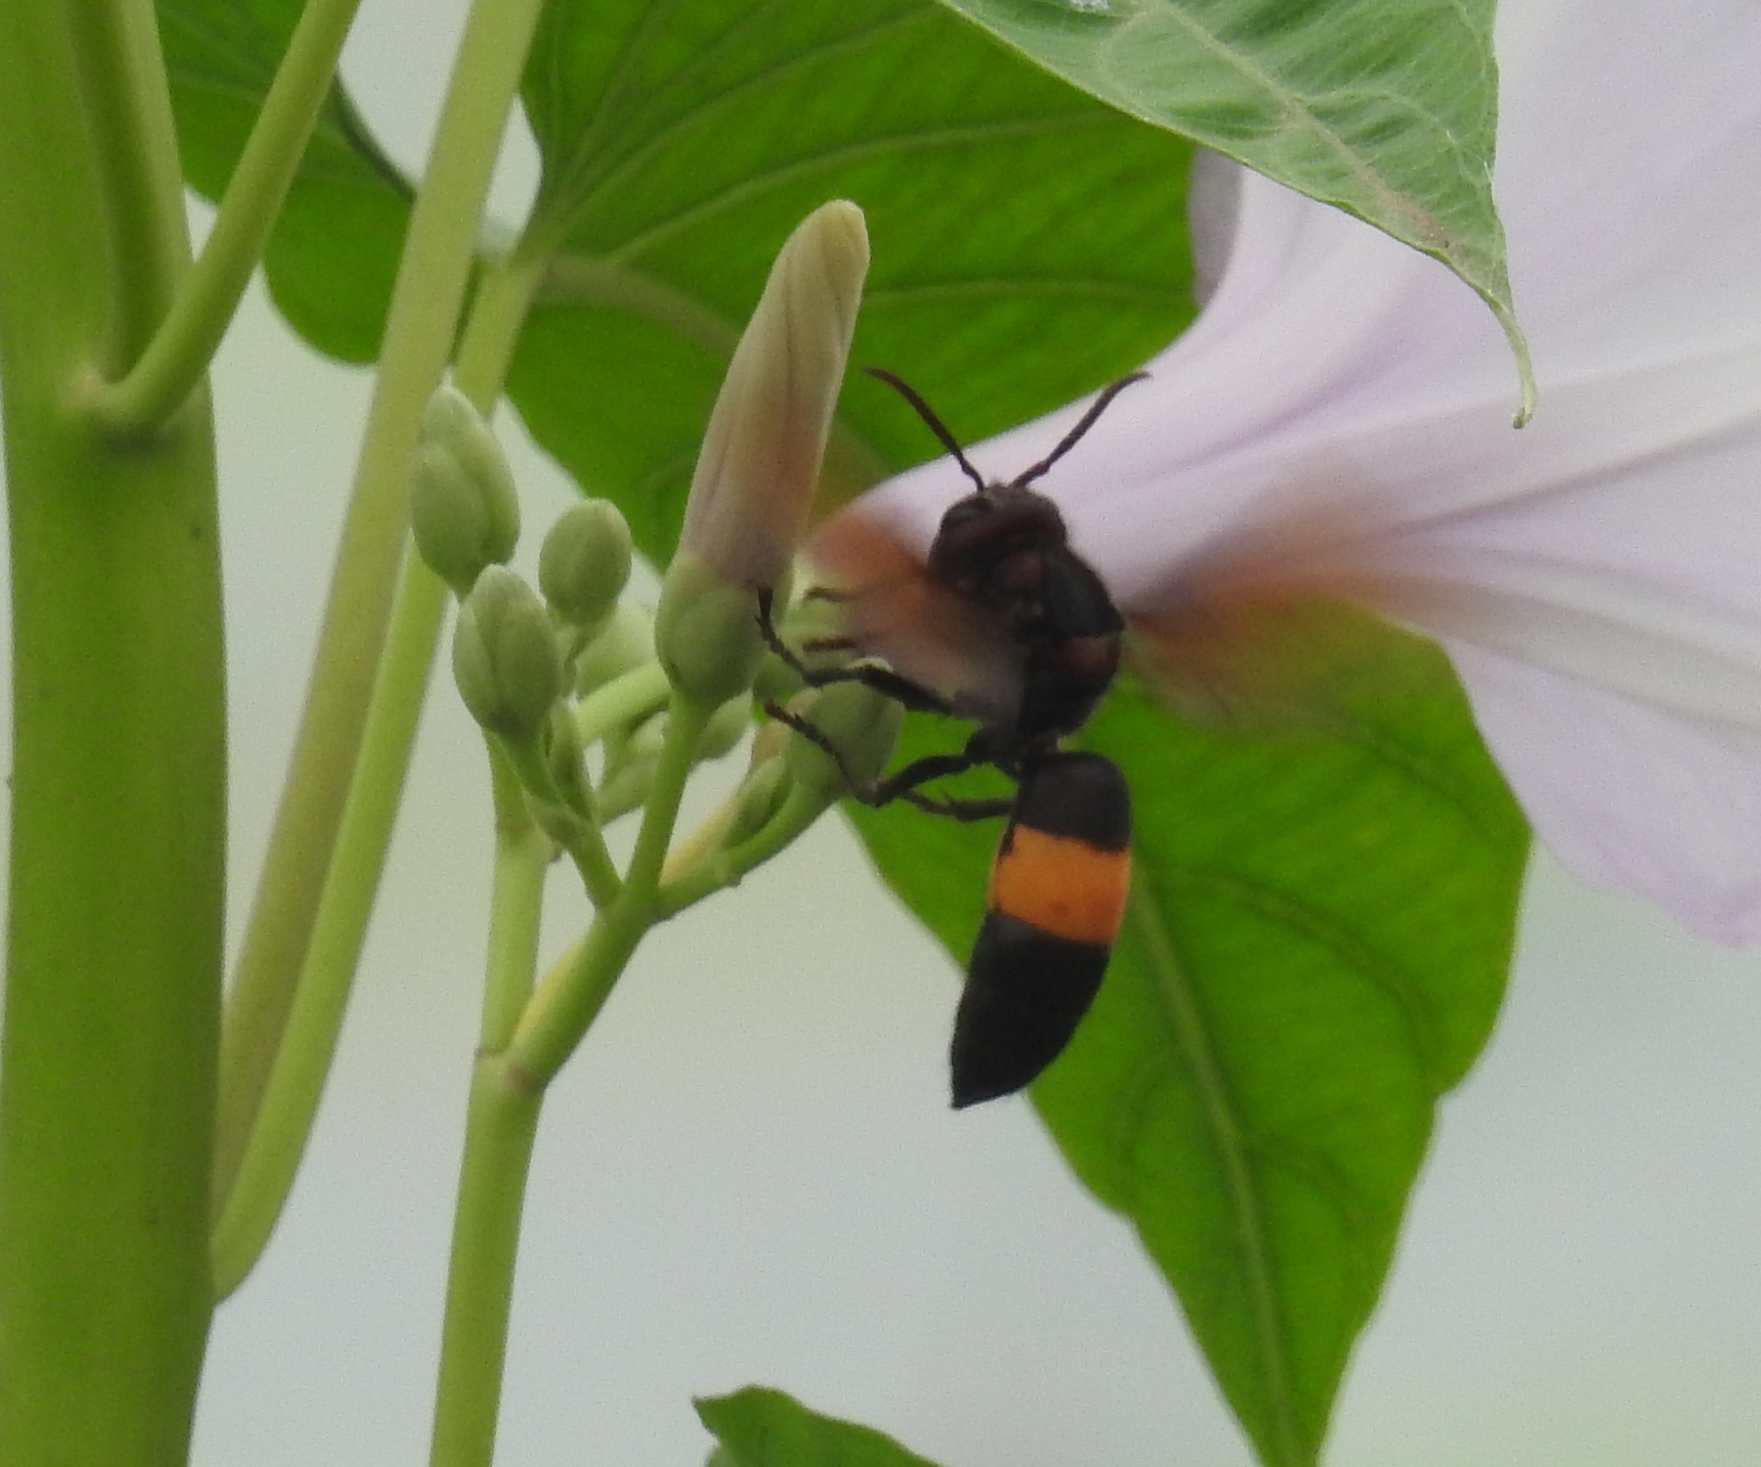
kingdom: Animalia
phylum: Arthropoda
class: Insecta
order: Hymenoptera
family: Vespidae
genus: Vespa
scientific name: Vespa tropica
